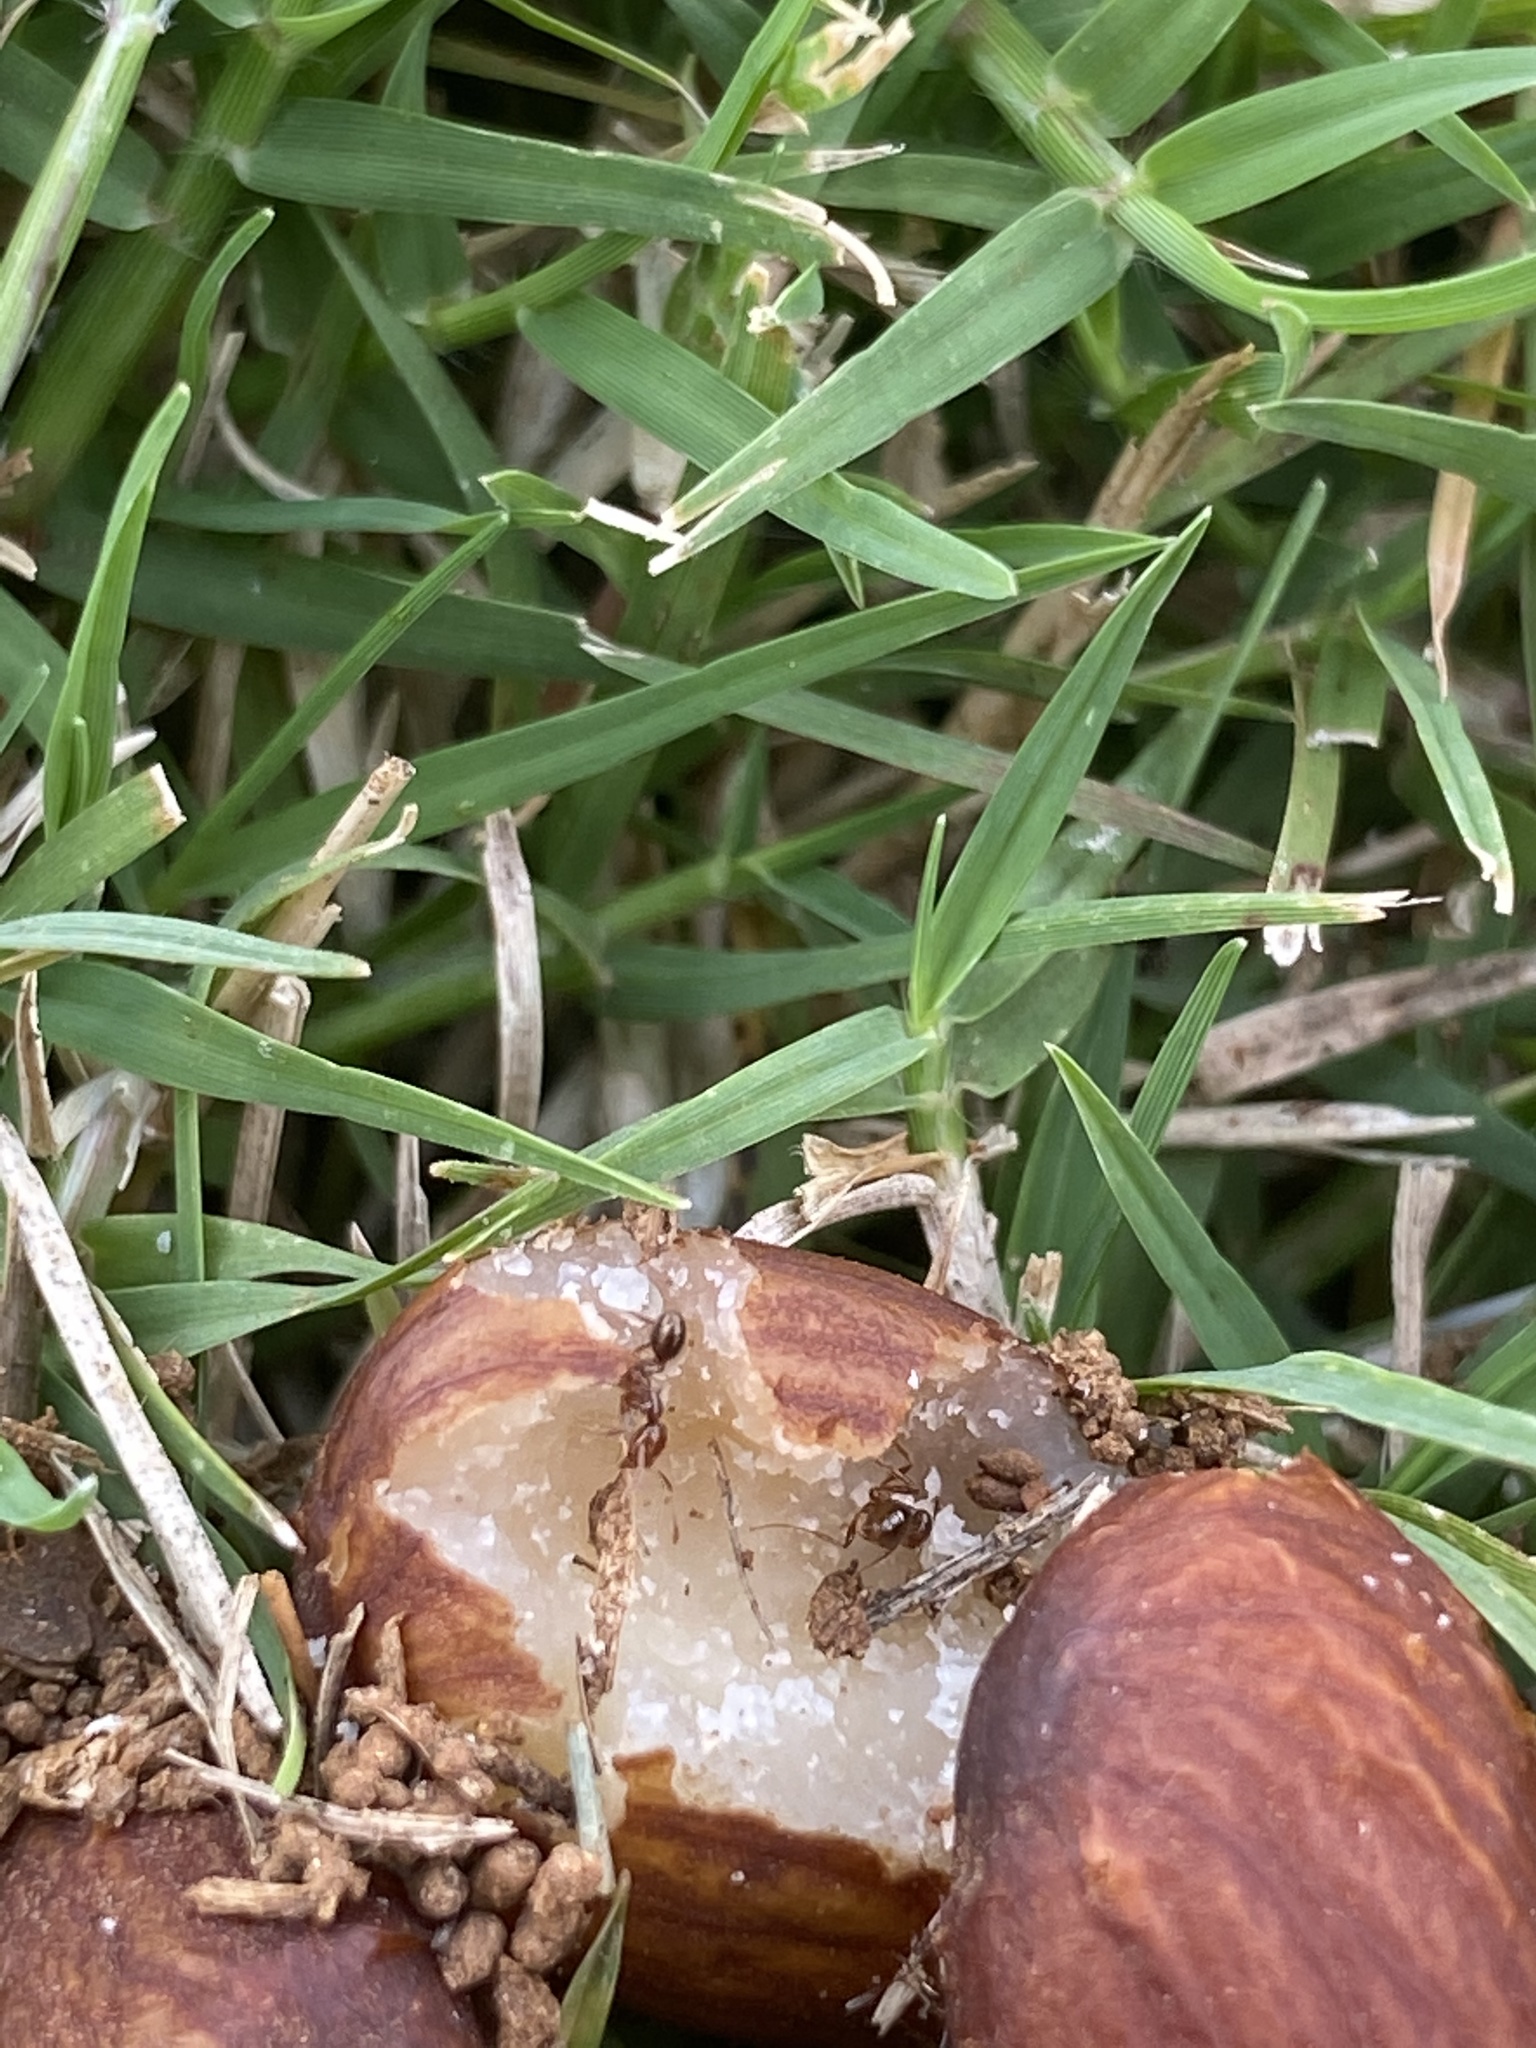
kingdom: Animalia
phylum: Arthropoda
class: Insecta
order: Hymenoptera
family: Formicidae
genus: Solenopsis
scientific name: Solenopsis invicta
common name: Red imported fire ant
